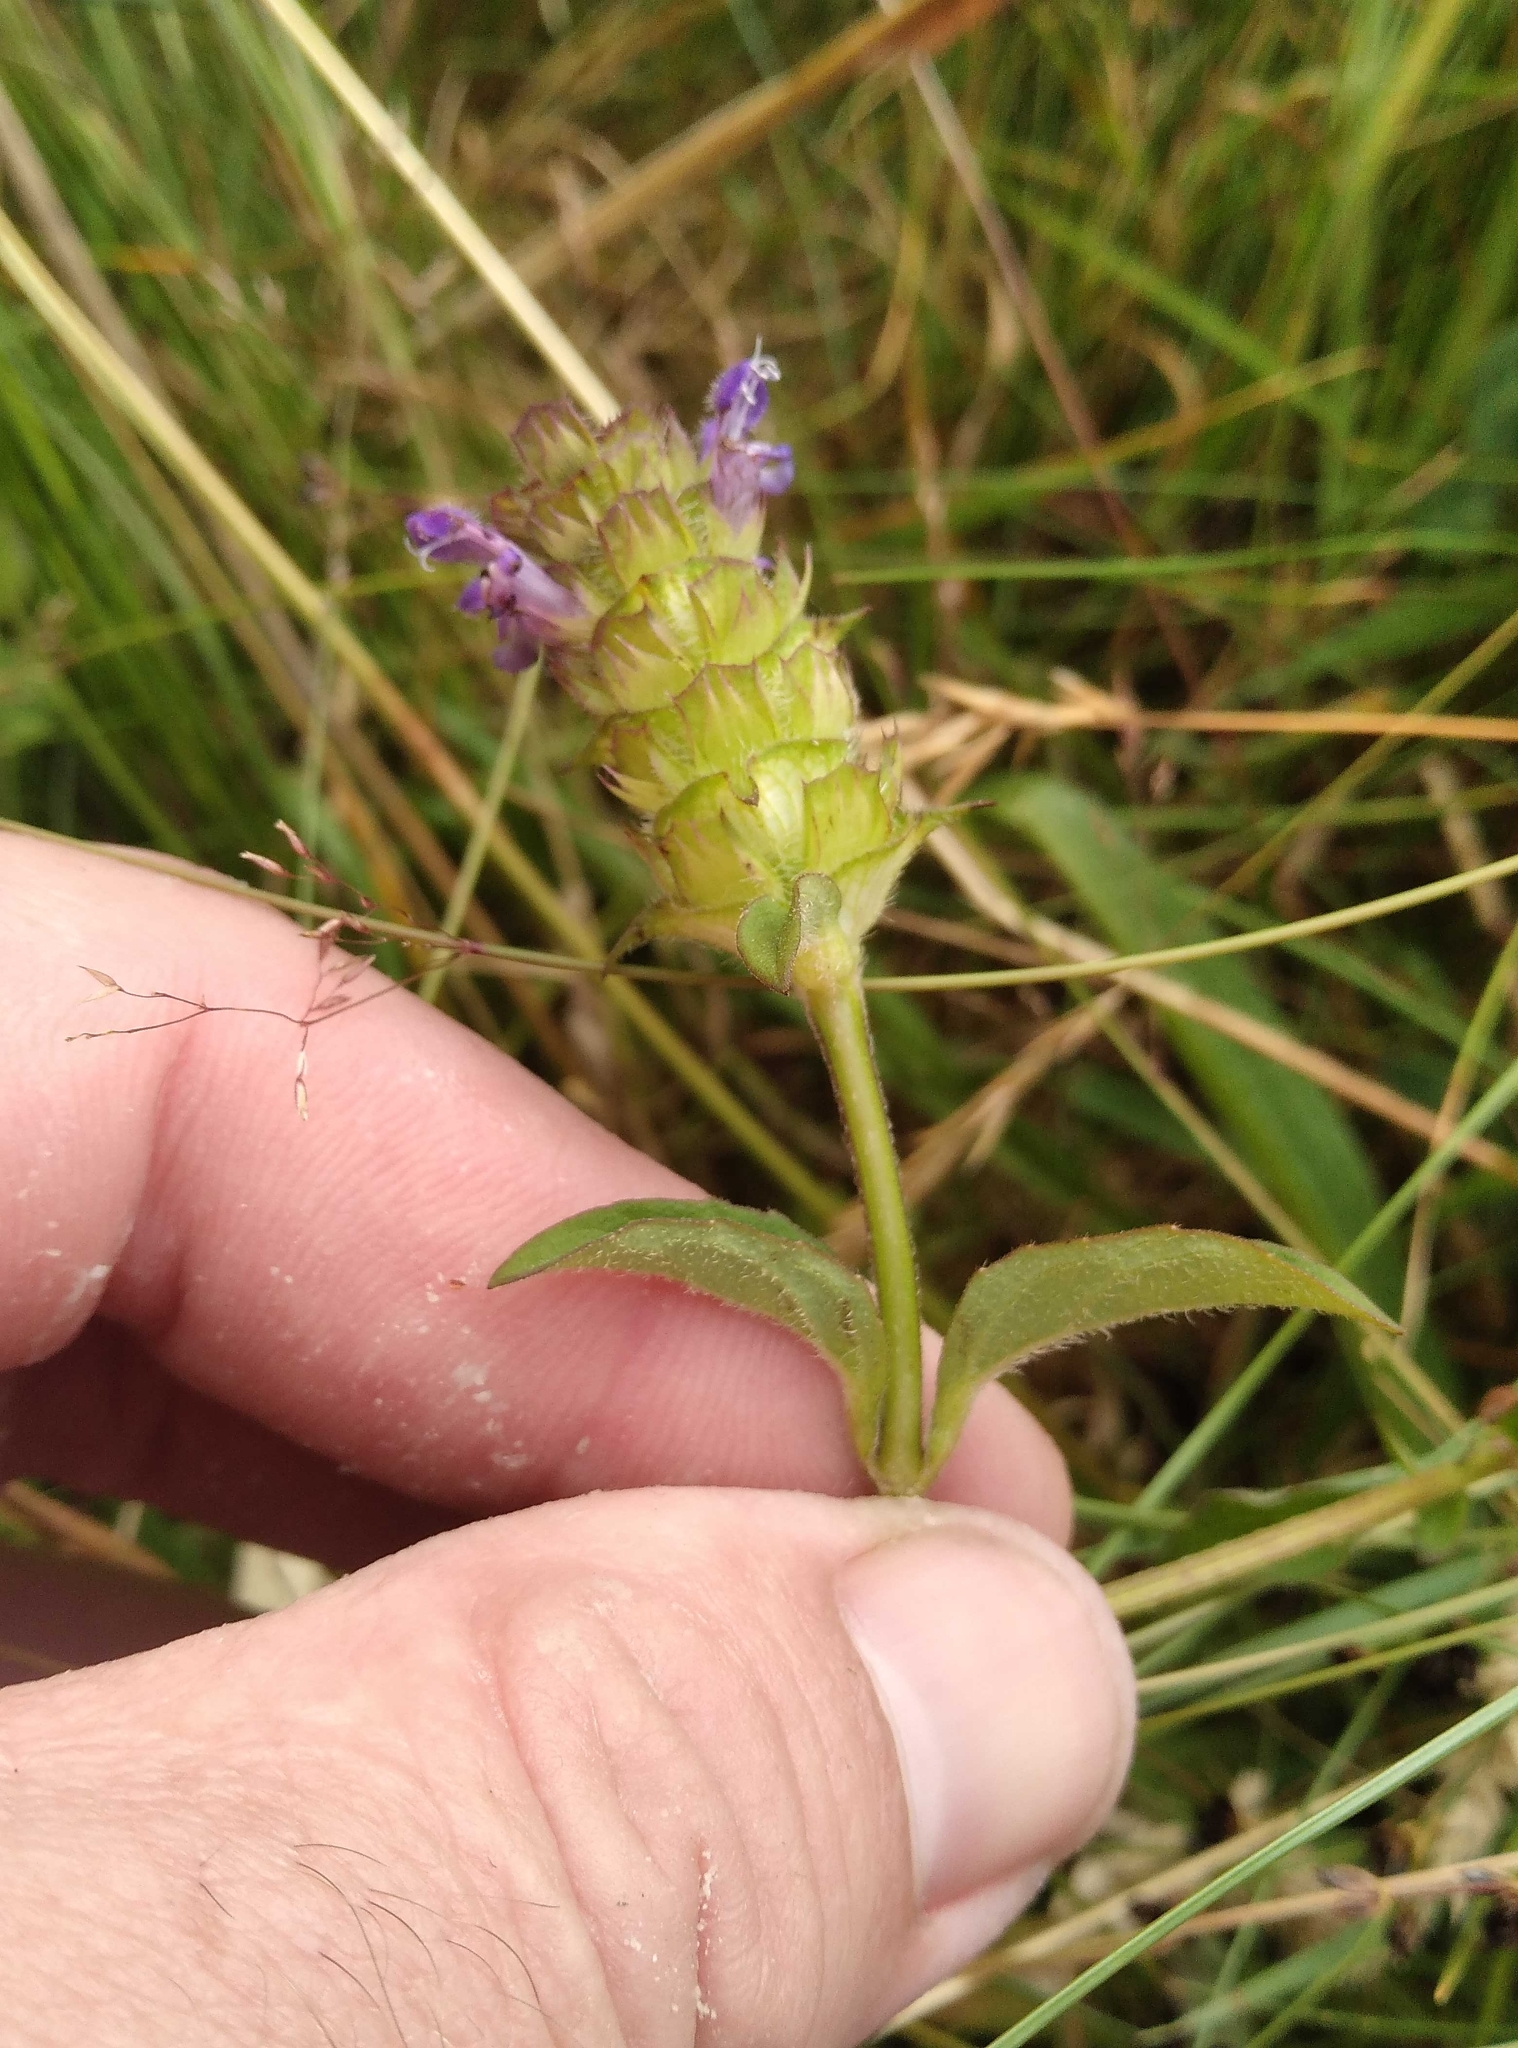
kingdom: Plantae
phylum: Tracheophyta
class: Magnoliopsida
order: Lamiales
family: Lamiaceae
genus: Prunella
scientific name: Prunella vulgaris
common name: Heal-all
